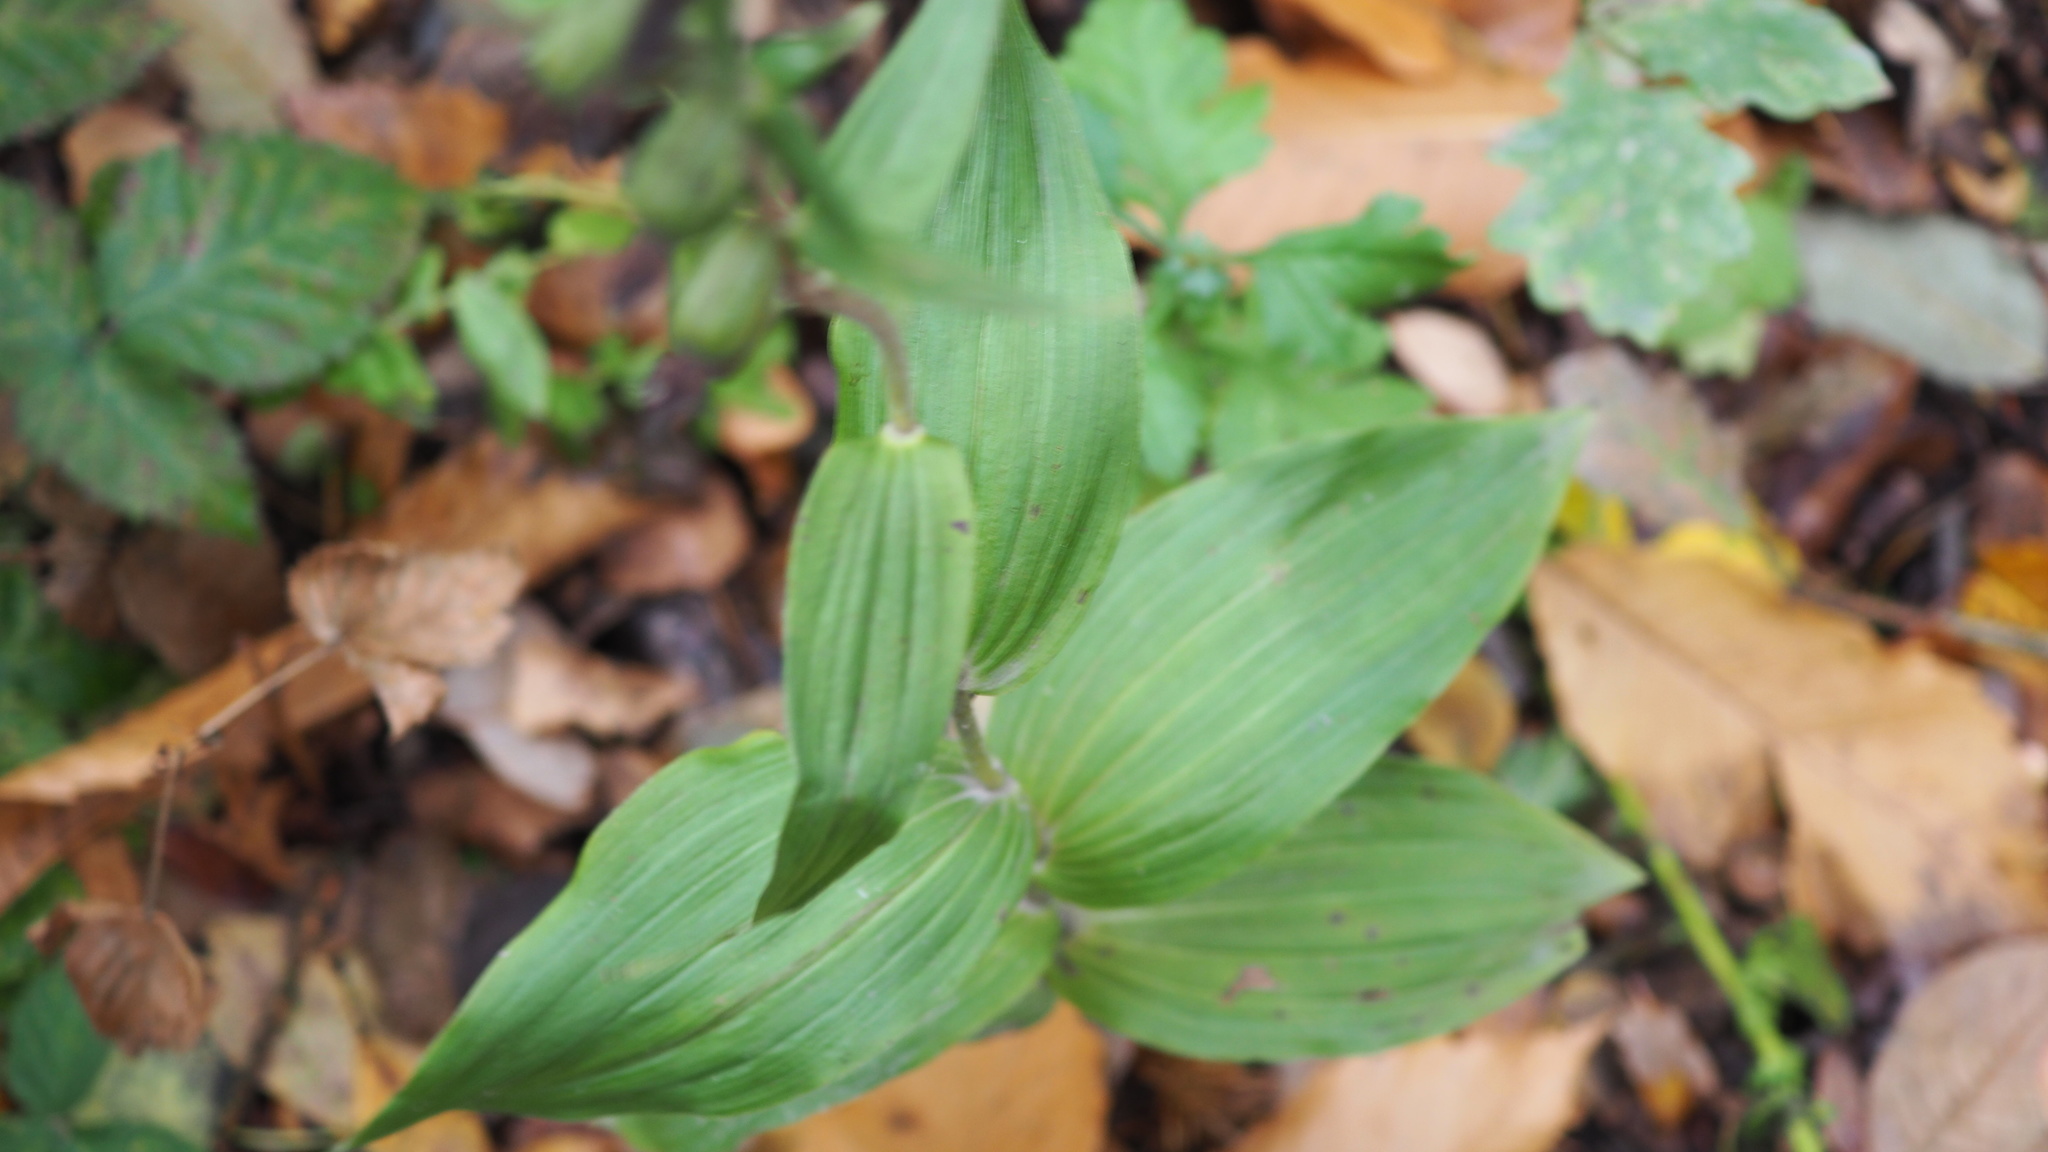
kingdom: Plantae
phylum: Tracheophyta
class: Liliopsida
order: Asparagales
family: Orchidaceae
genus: Epipactis
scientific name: Epipactis helleborine
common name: Broad-leaved helleborine
